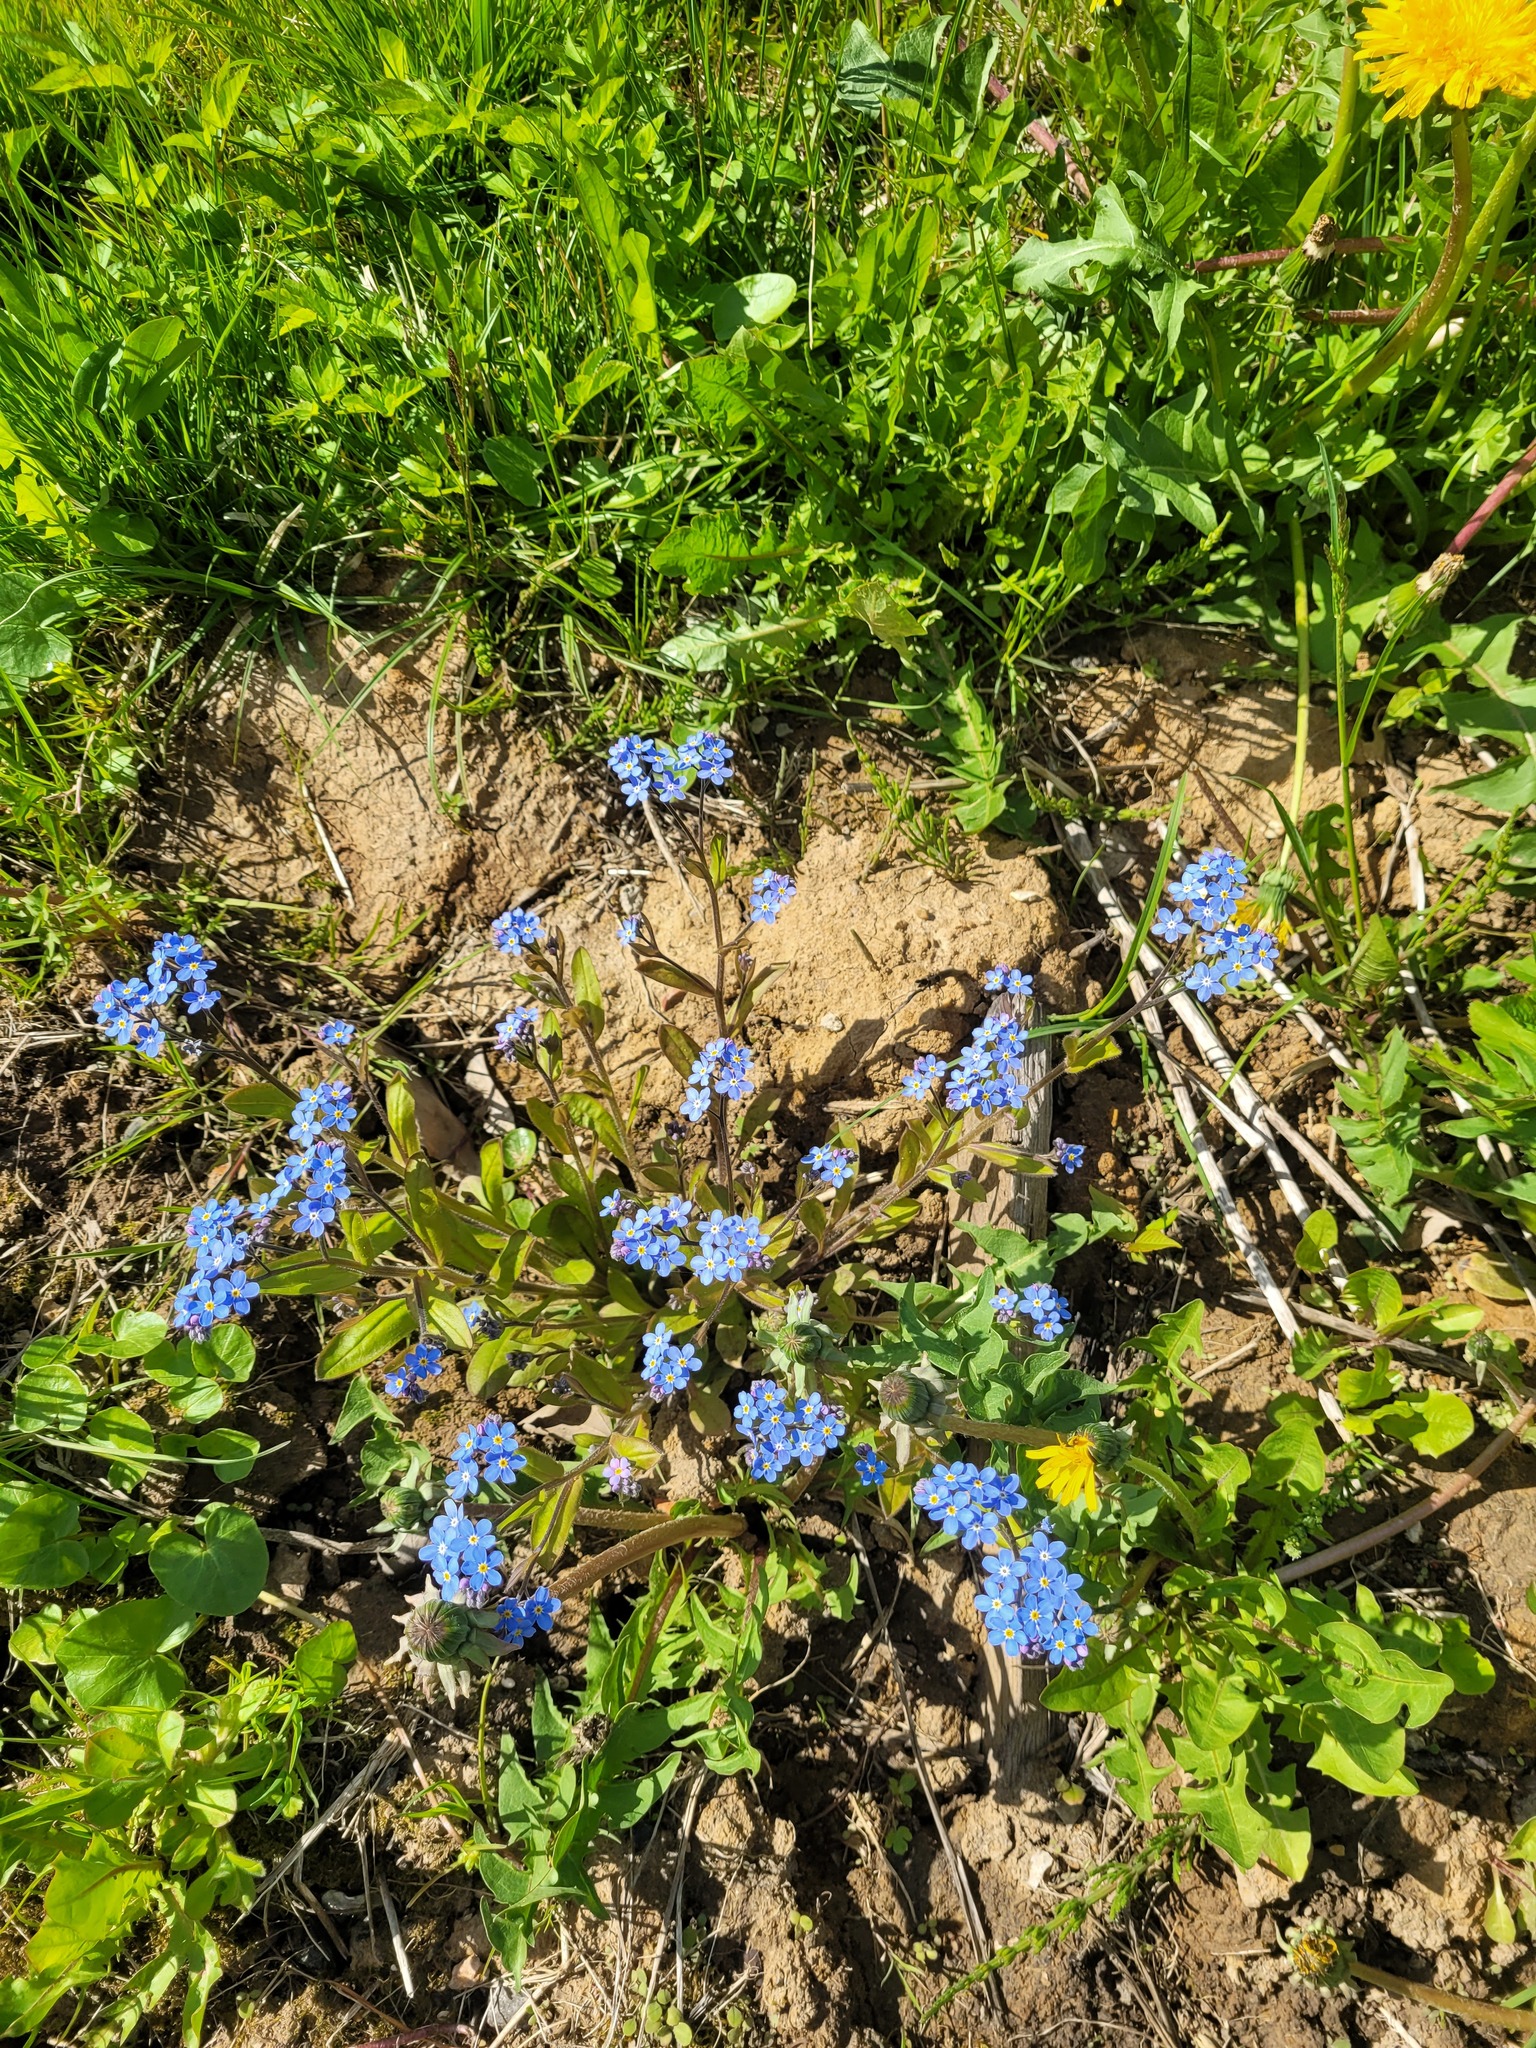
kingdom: Plantae
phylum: Tracheophyta
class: Magnoliopsida
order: Boraginales
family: Boraginaceae
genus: Myosotis
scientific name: Myosotis sylvatica
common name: Wood forget-me-not
